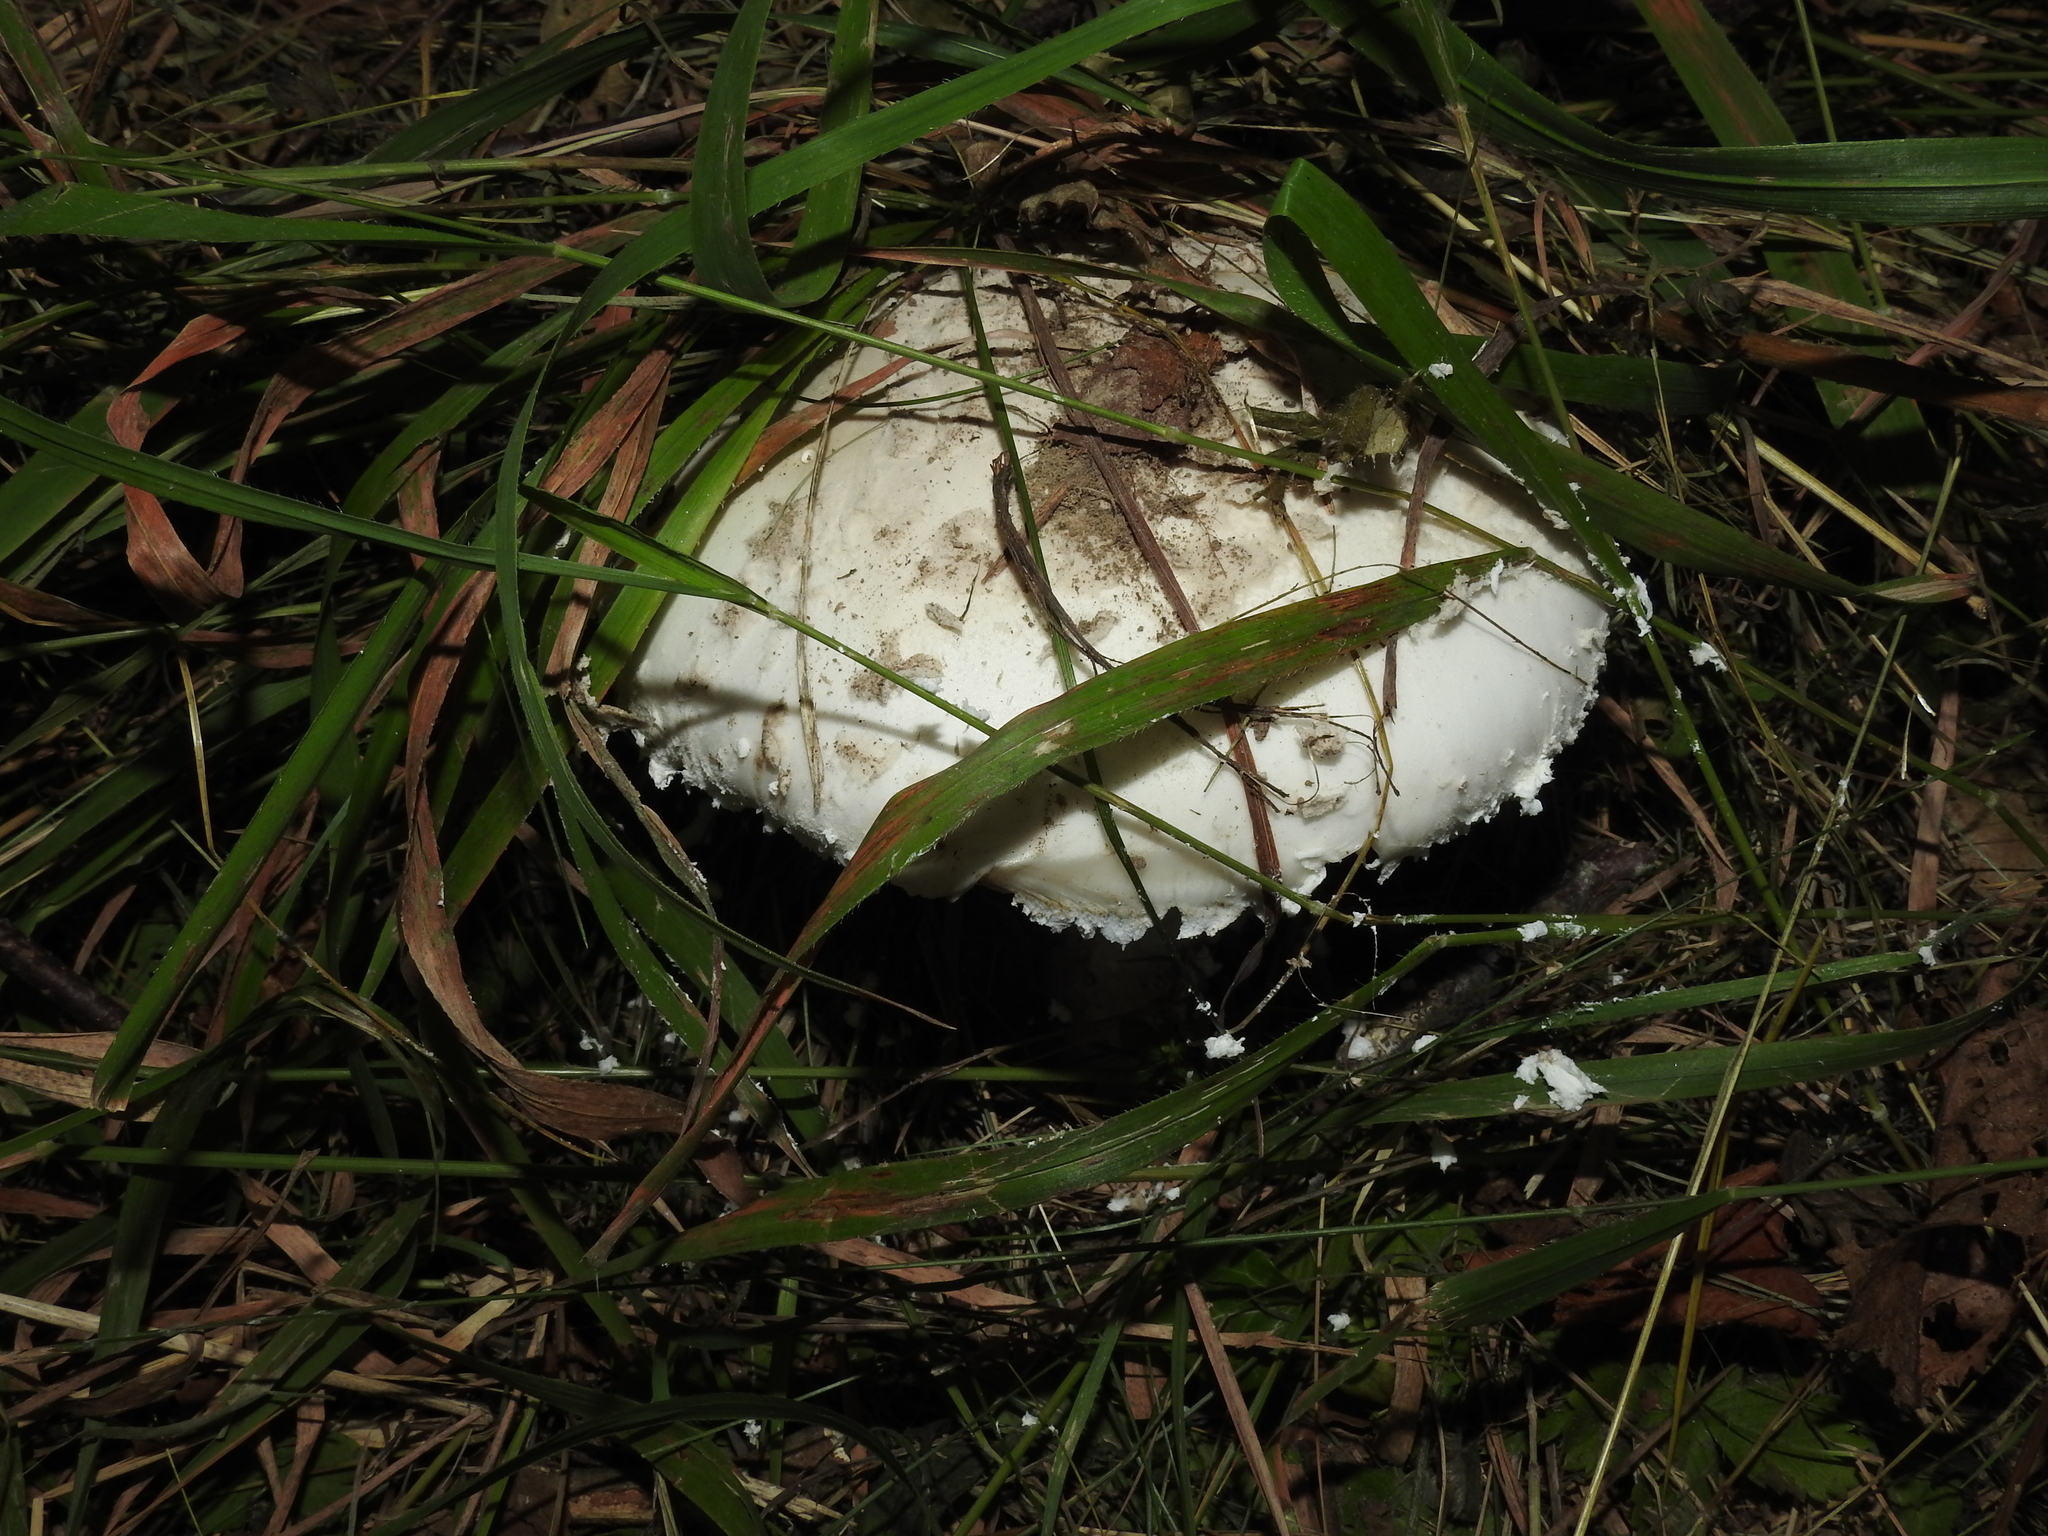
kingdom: Fungi
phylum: Basidiomycota
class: Agaricomycetes
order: Agaricales
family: Amanitaceae
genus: Amanita
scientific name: Amanita strobiliformis
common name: Warted amanita
